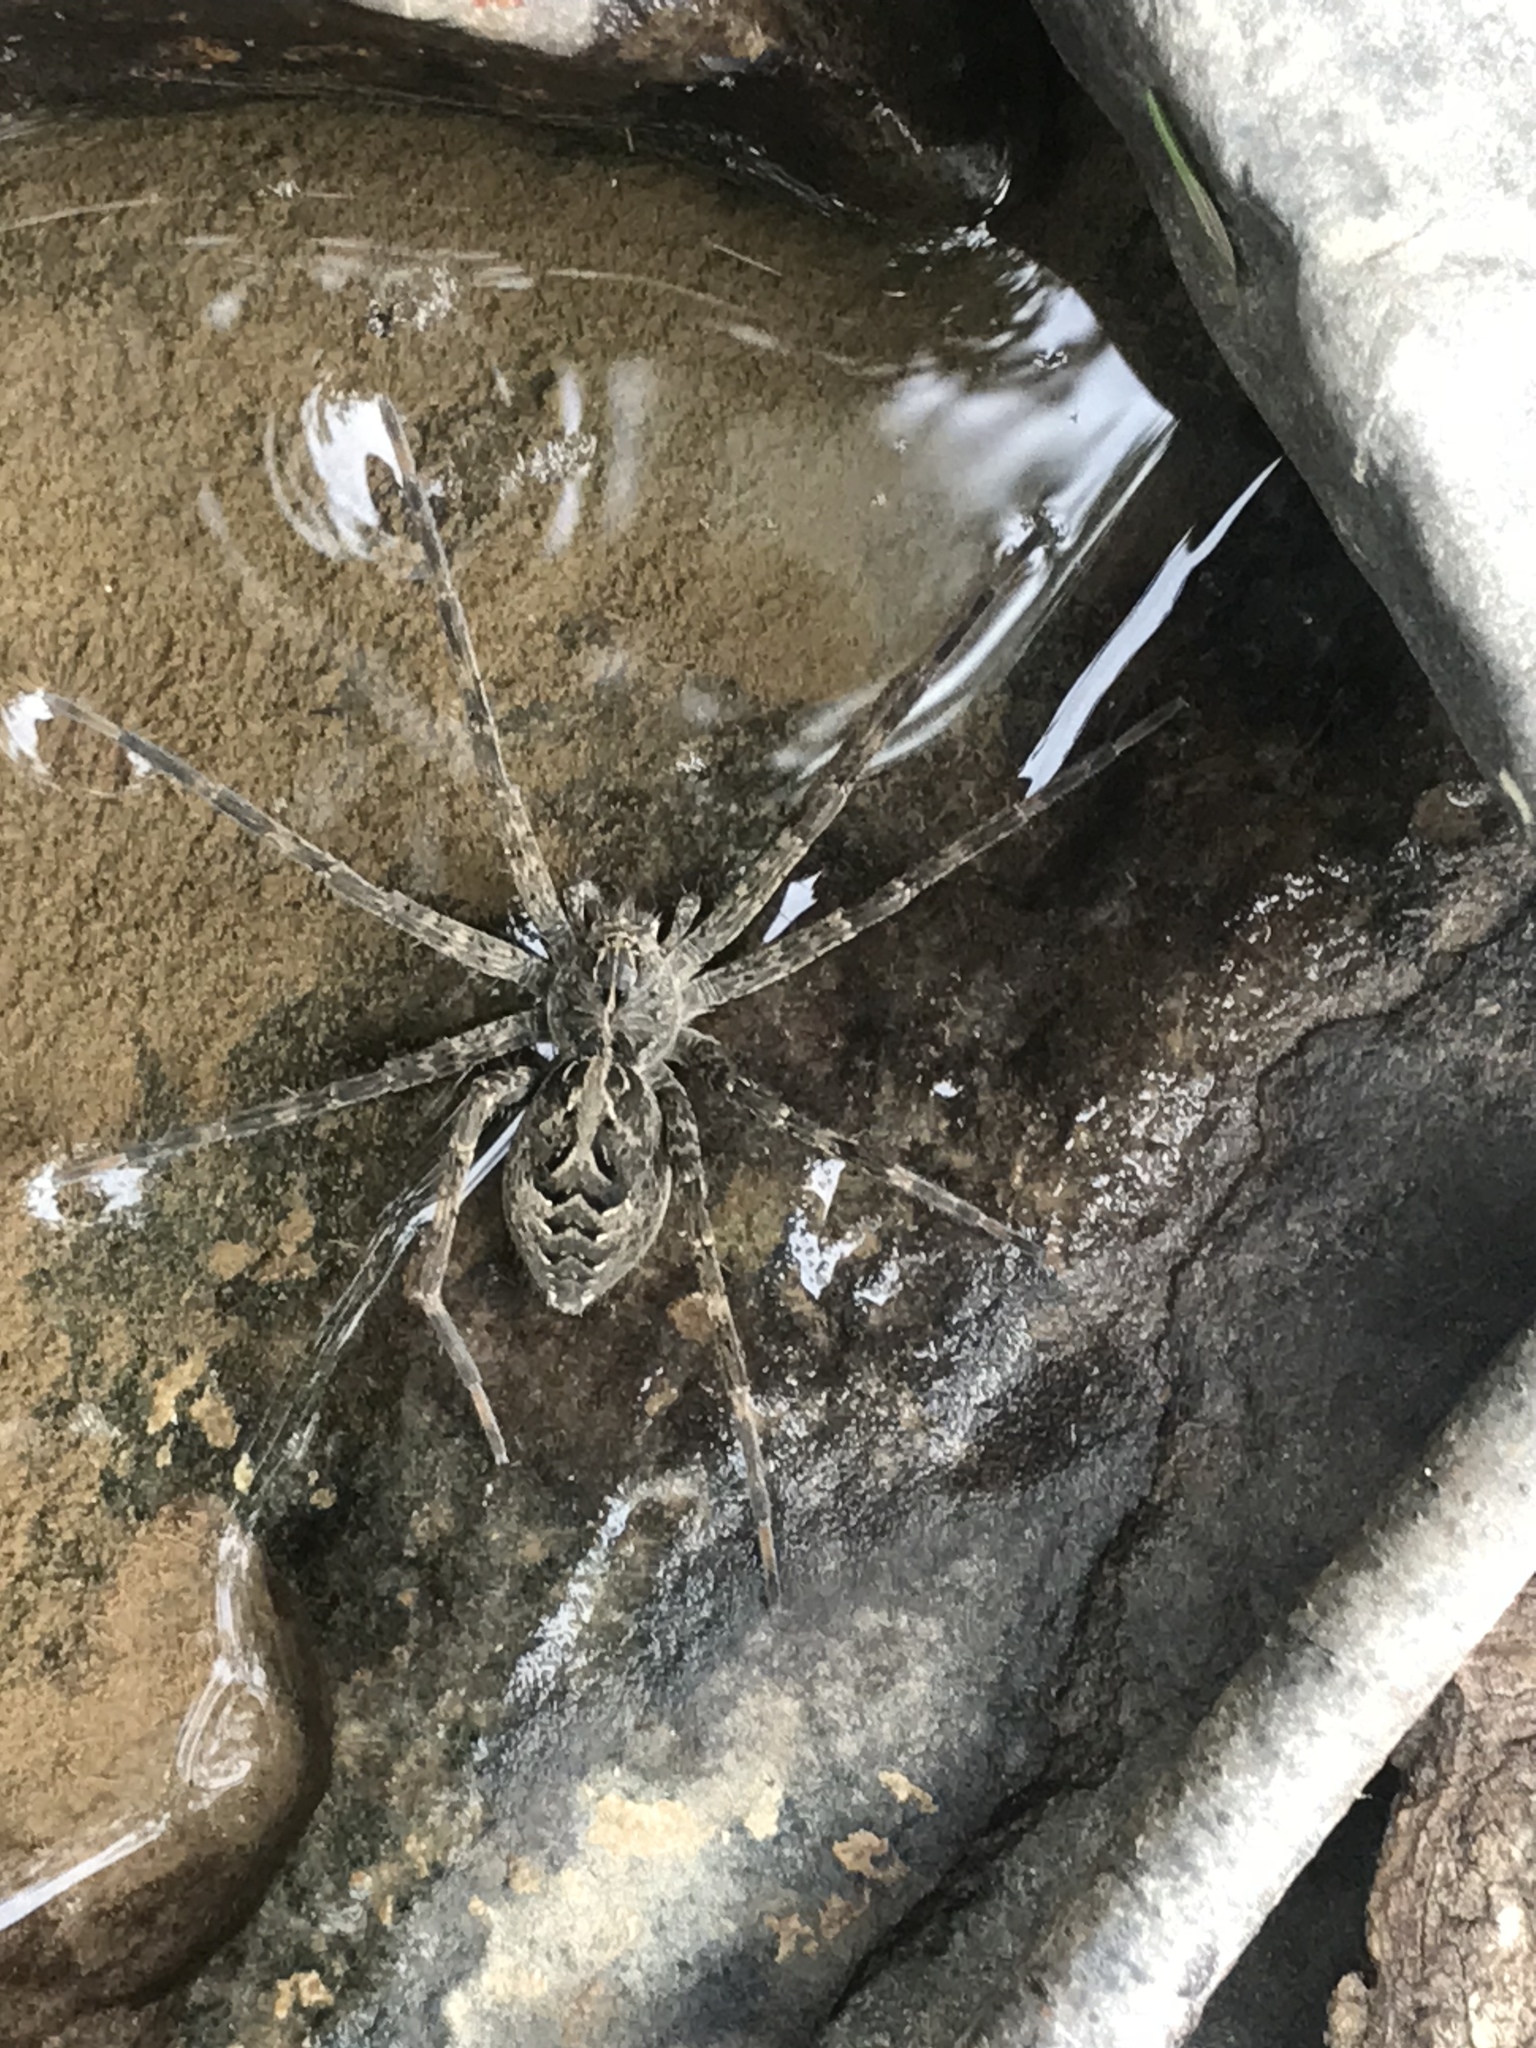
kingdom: Animalia
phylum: Arthropoda
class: Arachnida
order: Araneae
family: Pisauridae
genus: Dolomedes
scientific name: Dolomedes scriptus
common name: Striped fishing spider
